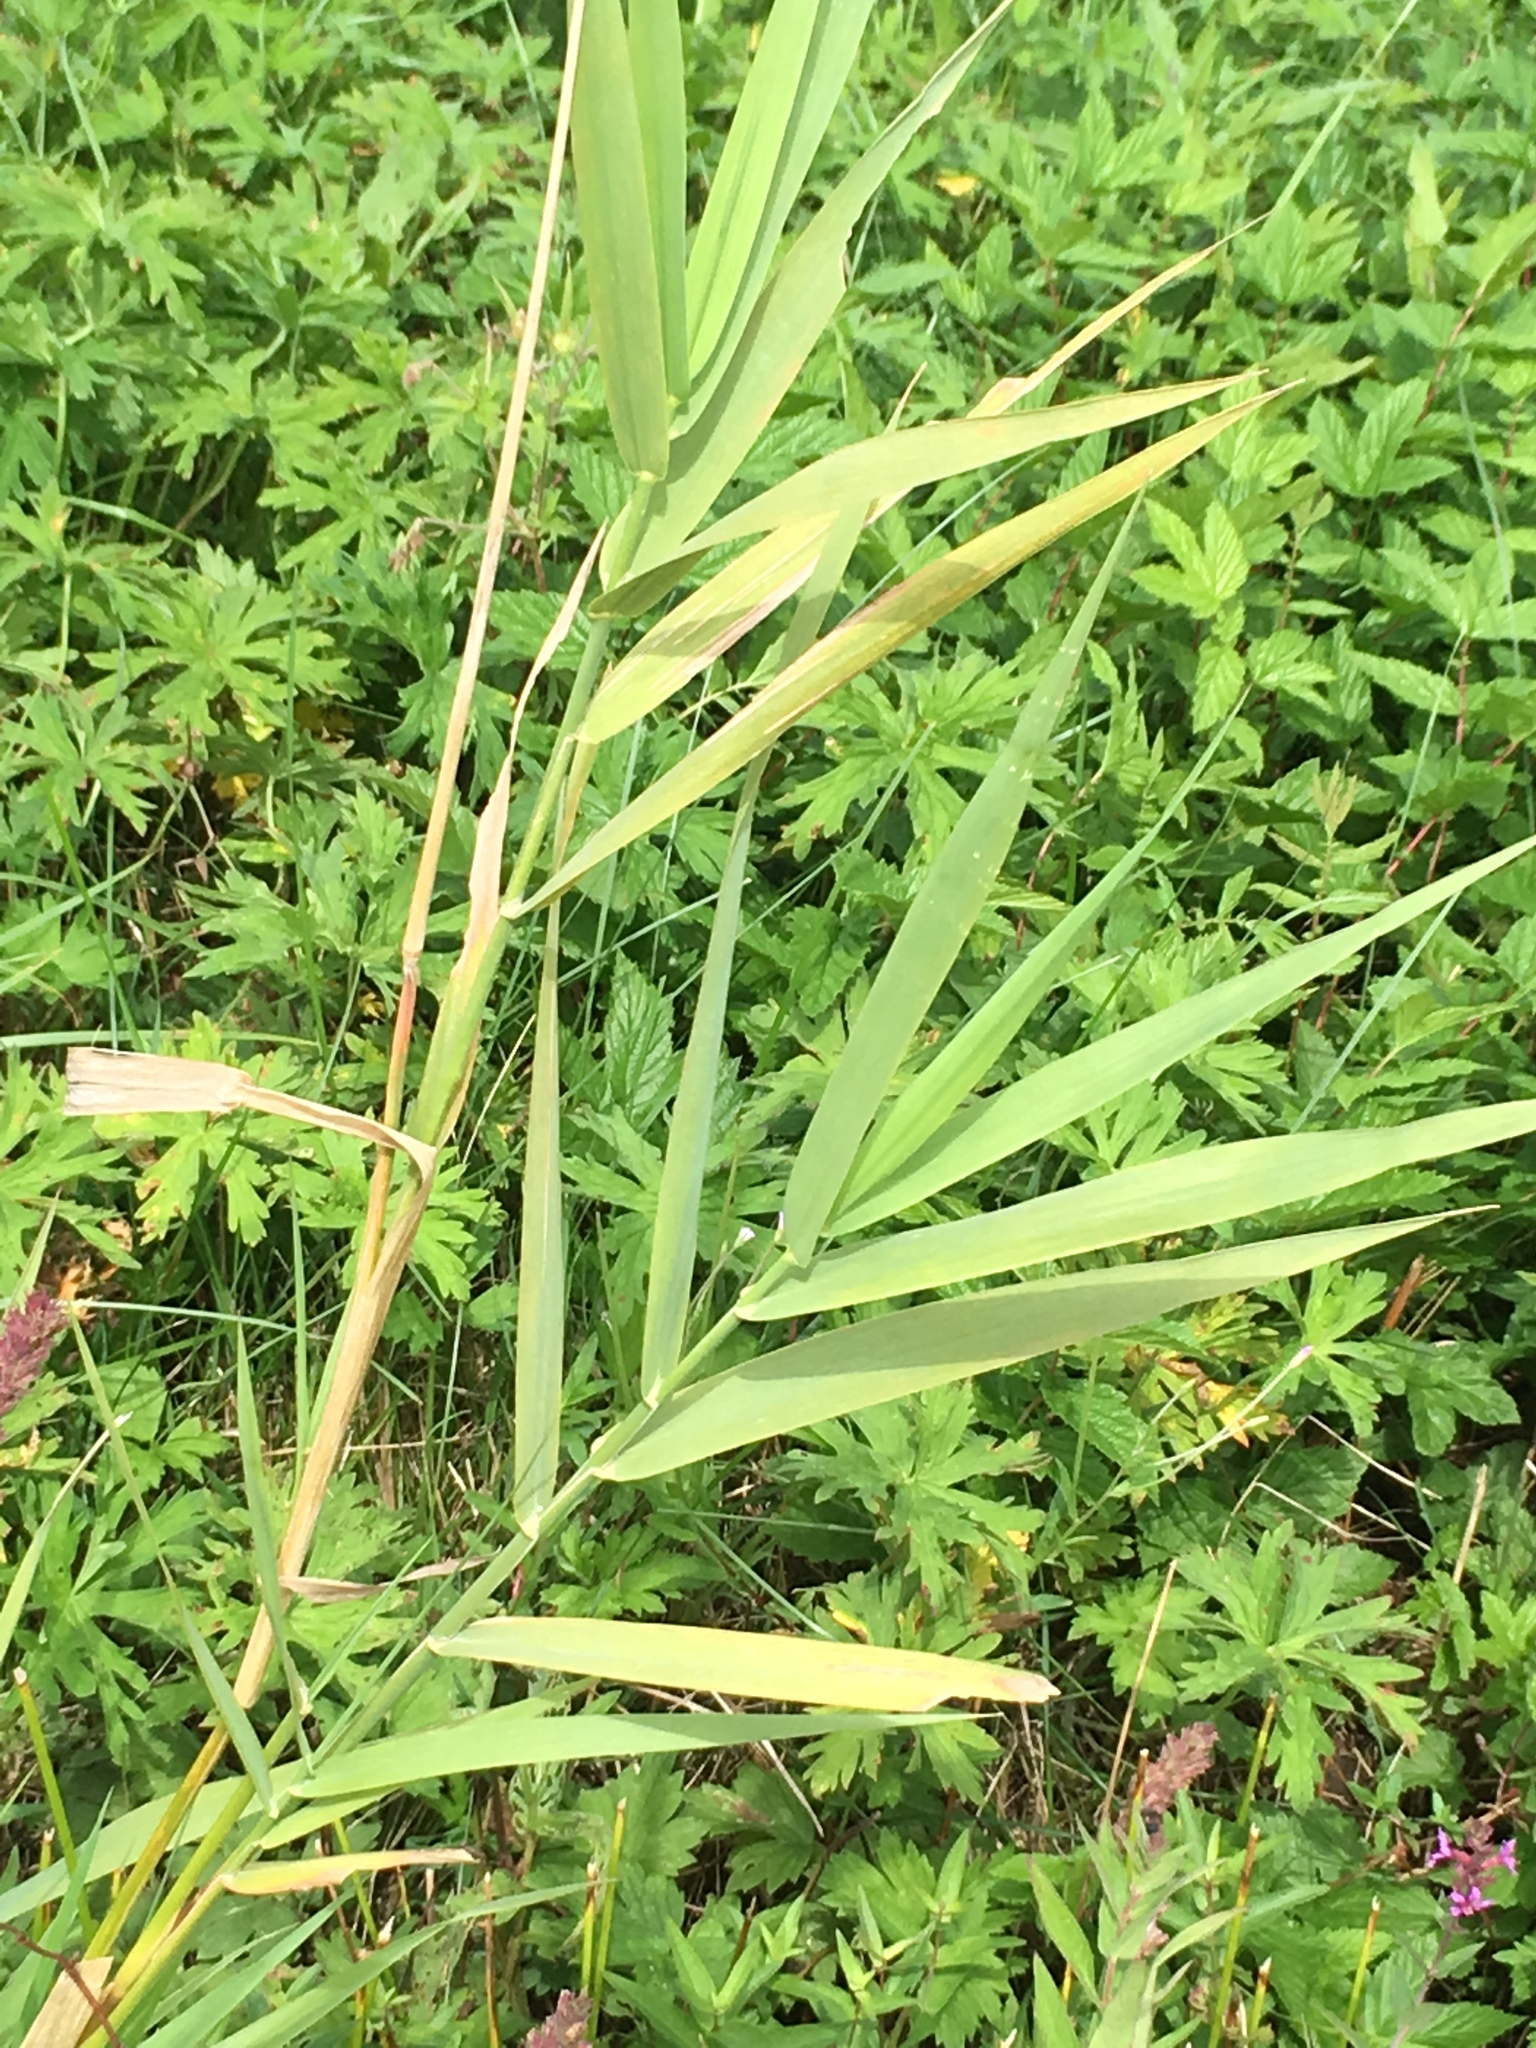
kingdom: Plantae
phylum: Tracheophyta
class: Liliopsida
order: Poales
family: Poaceae
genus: Phragmites
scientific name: Phragmites australis
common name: Common reed
